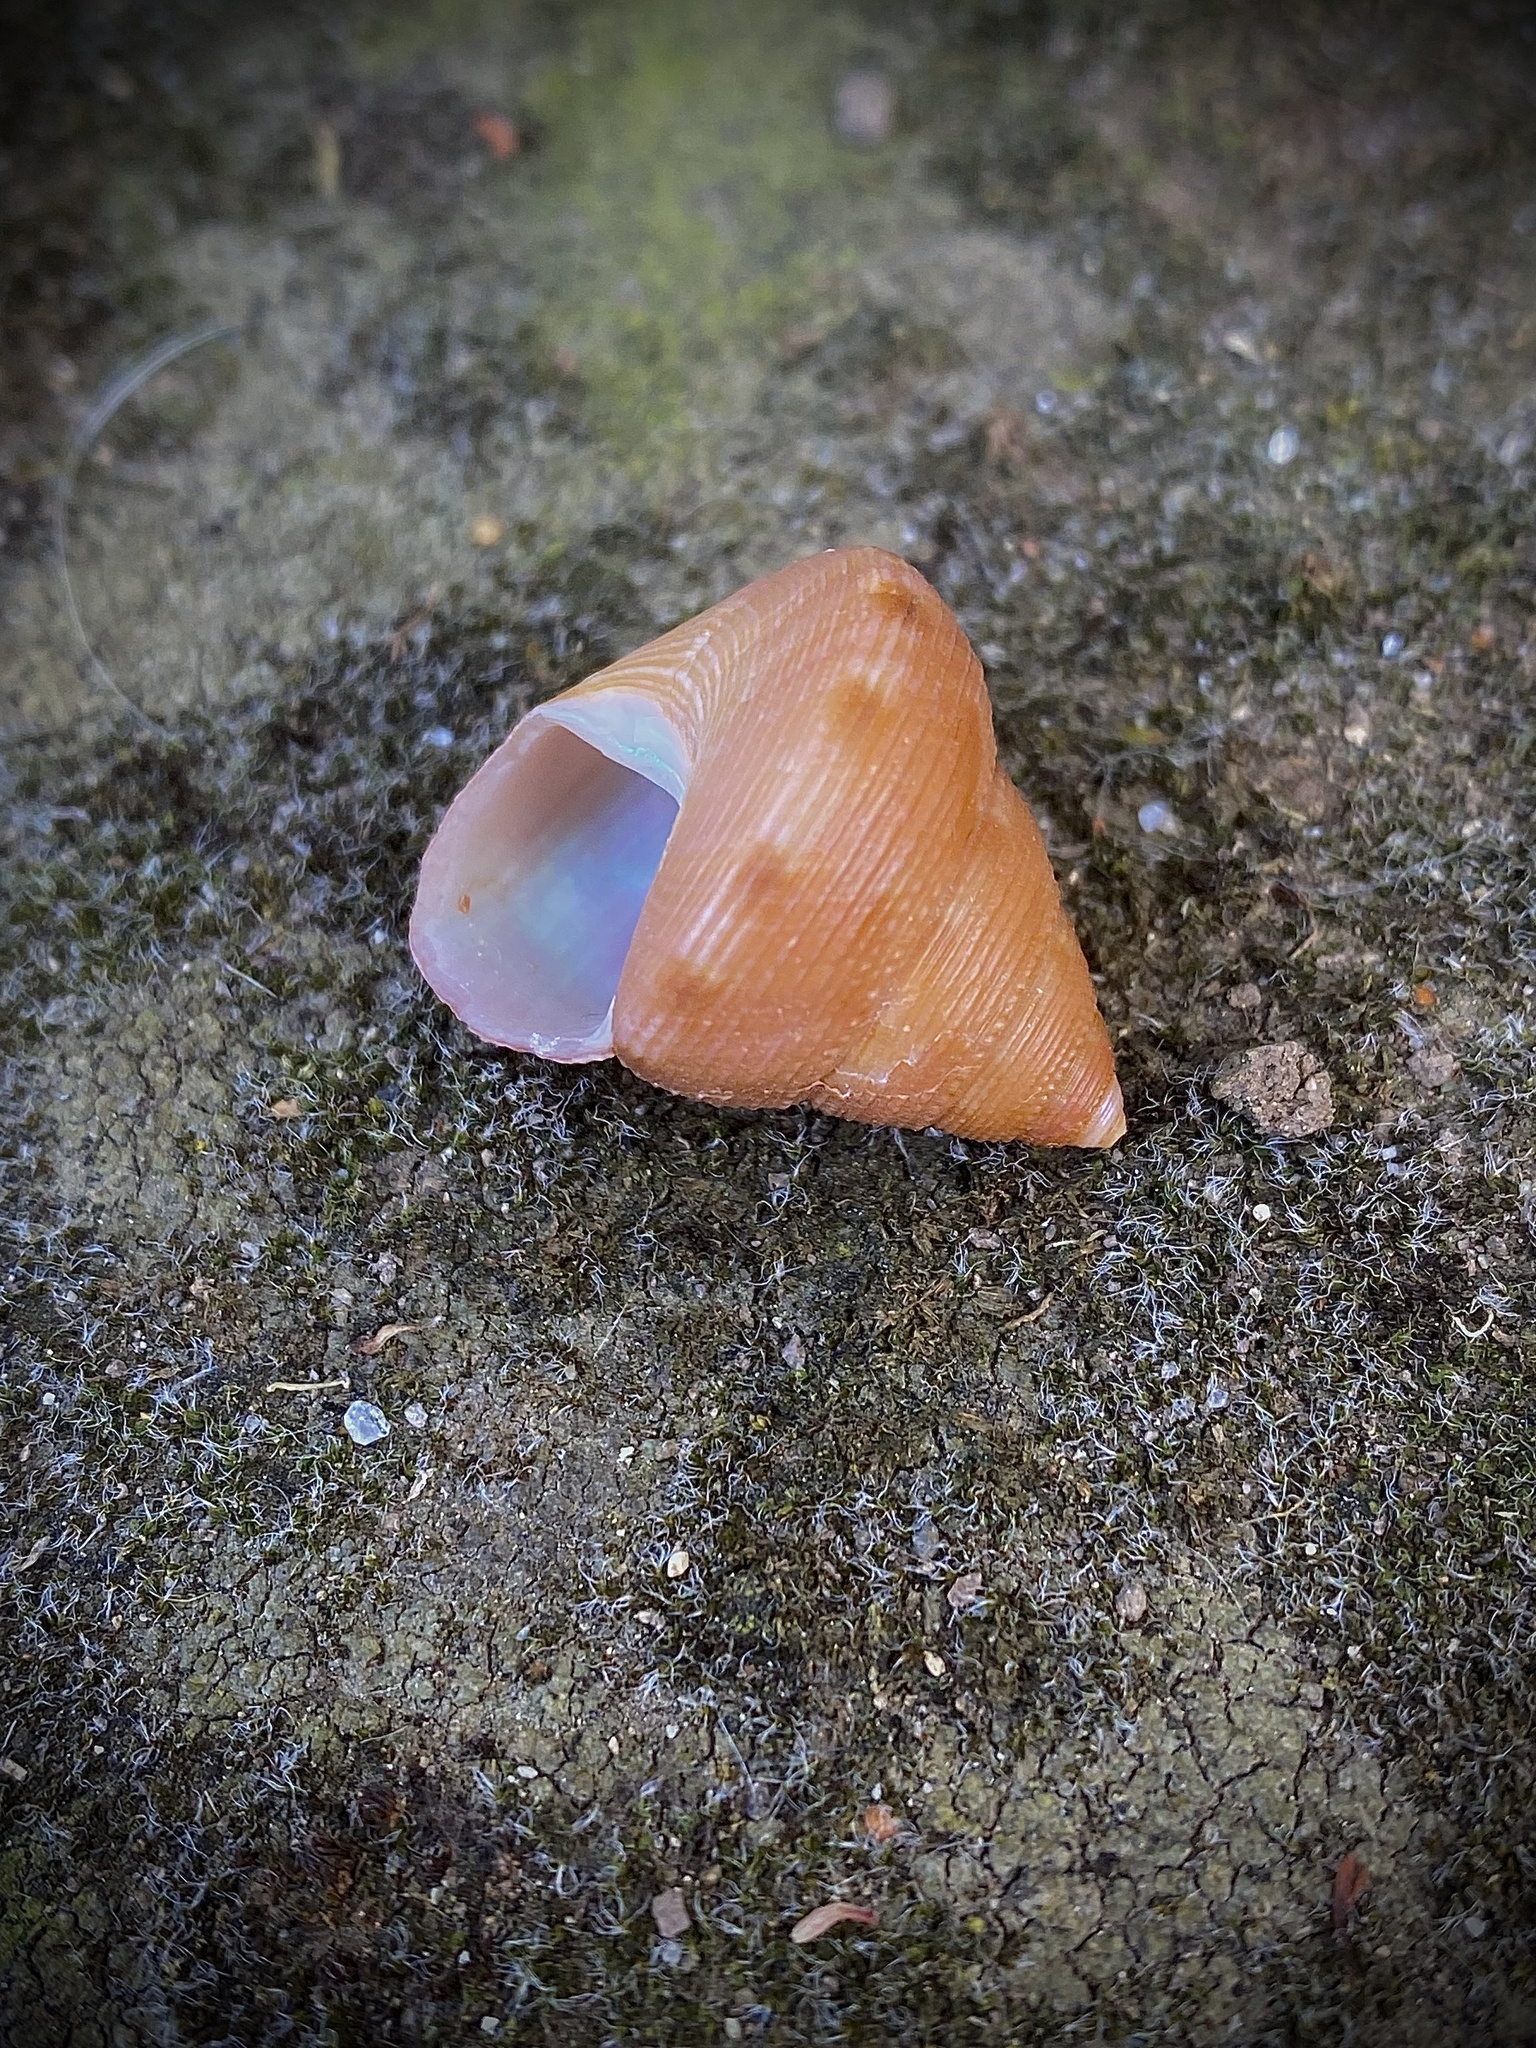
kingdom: Animalia
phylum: Mollusca
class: Gastropoda
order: Trochida
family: Calliostomatidae
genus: Calliostoma
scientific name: Calliostoma gloriosum
